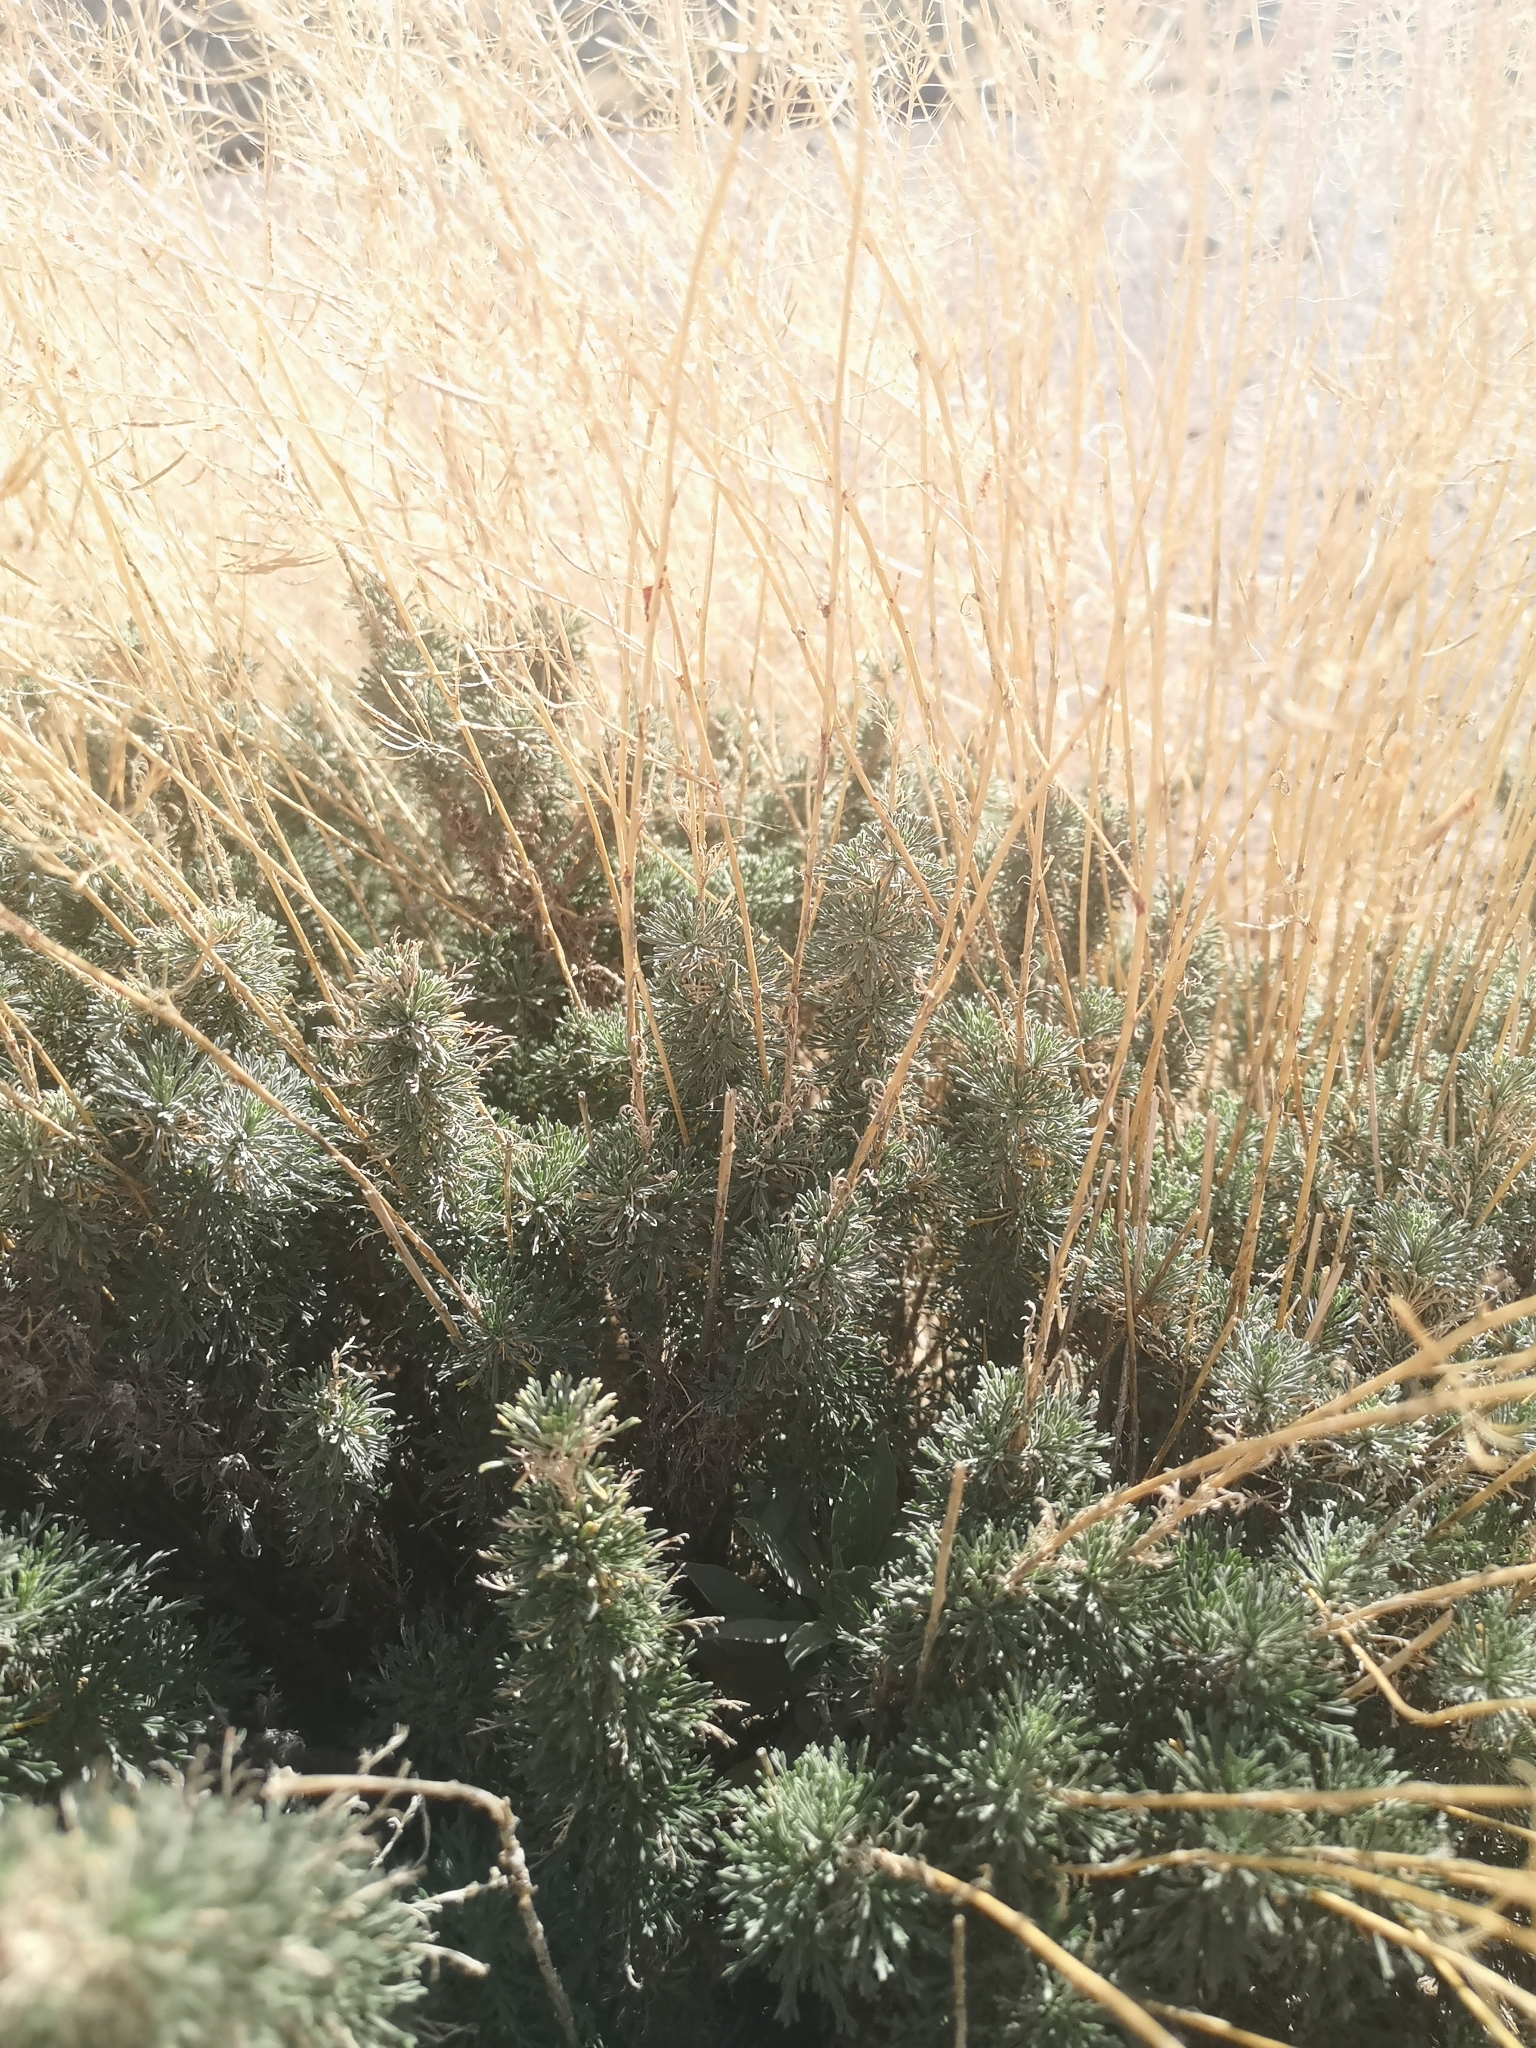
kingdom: Plantae
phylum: Tracheophyta
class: Magnoliopsida
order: Brassicales
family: Brassicaceae
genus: Descurainia
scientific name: Descurainia bourgaeana
